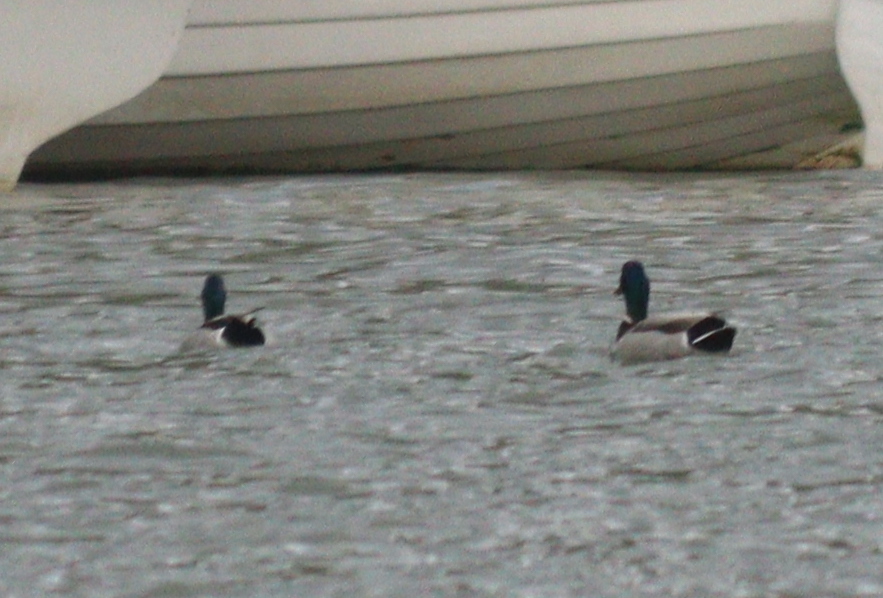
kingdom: Animalia
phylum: Chordata
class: Aves
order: Anseriformes
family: Anatidae
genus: Anas
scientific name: Anas platyrhynchos
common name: Mallard
